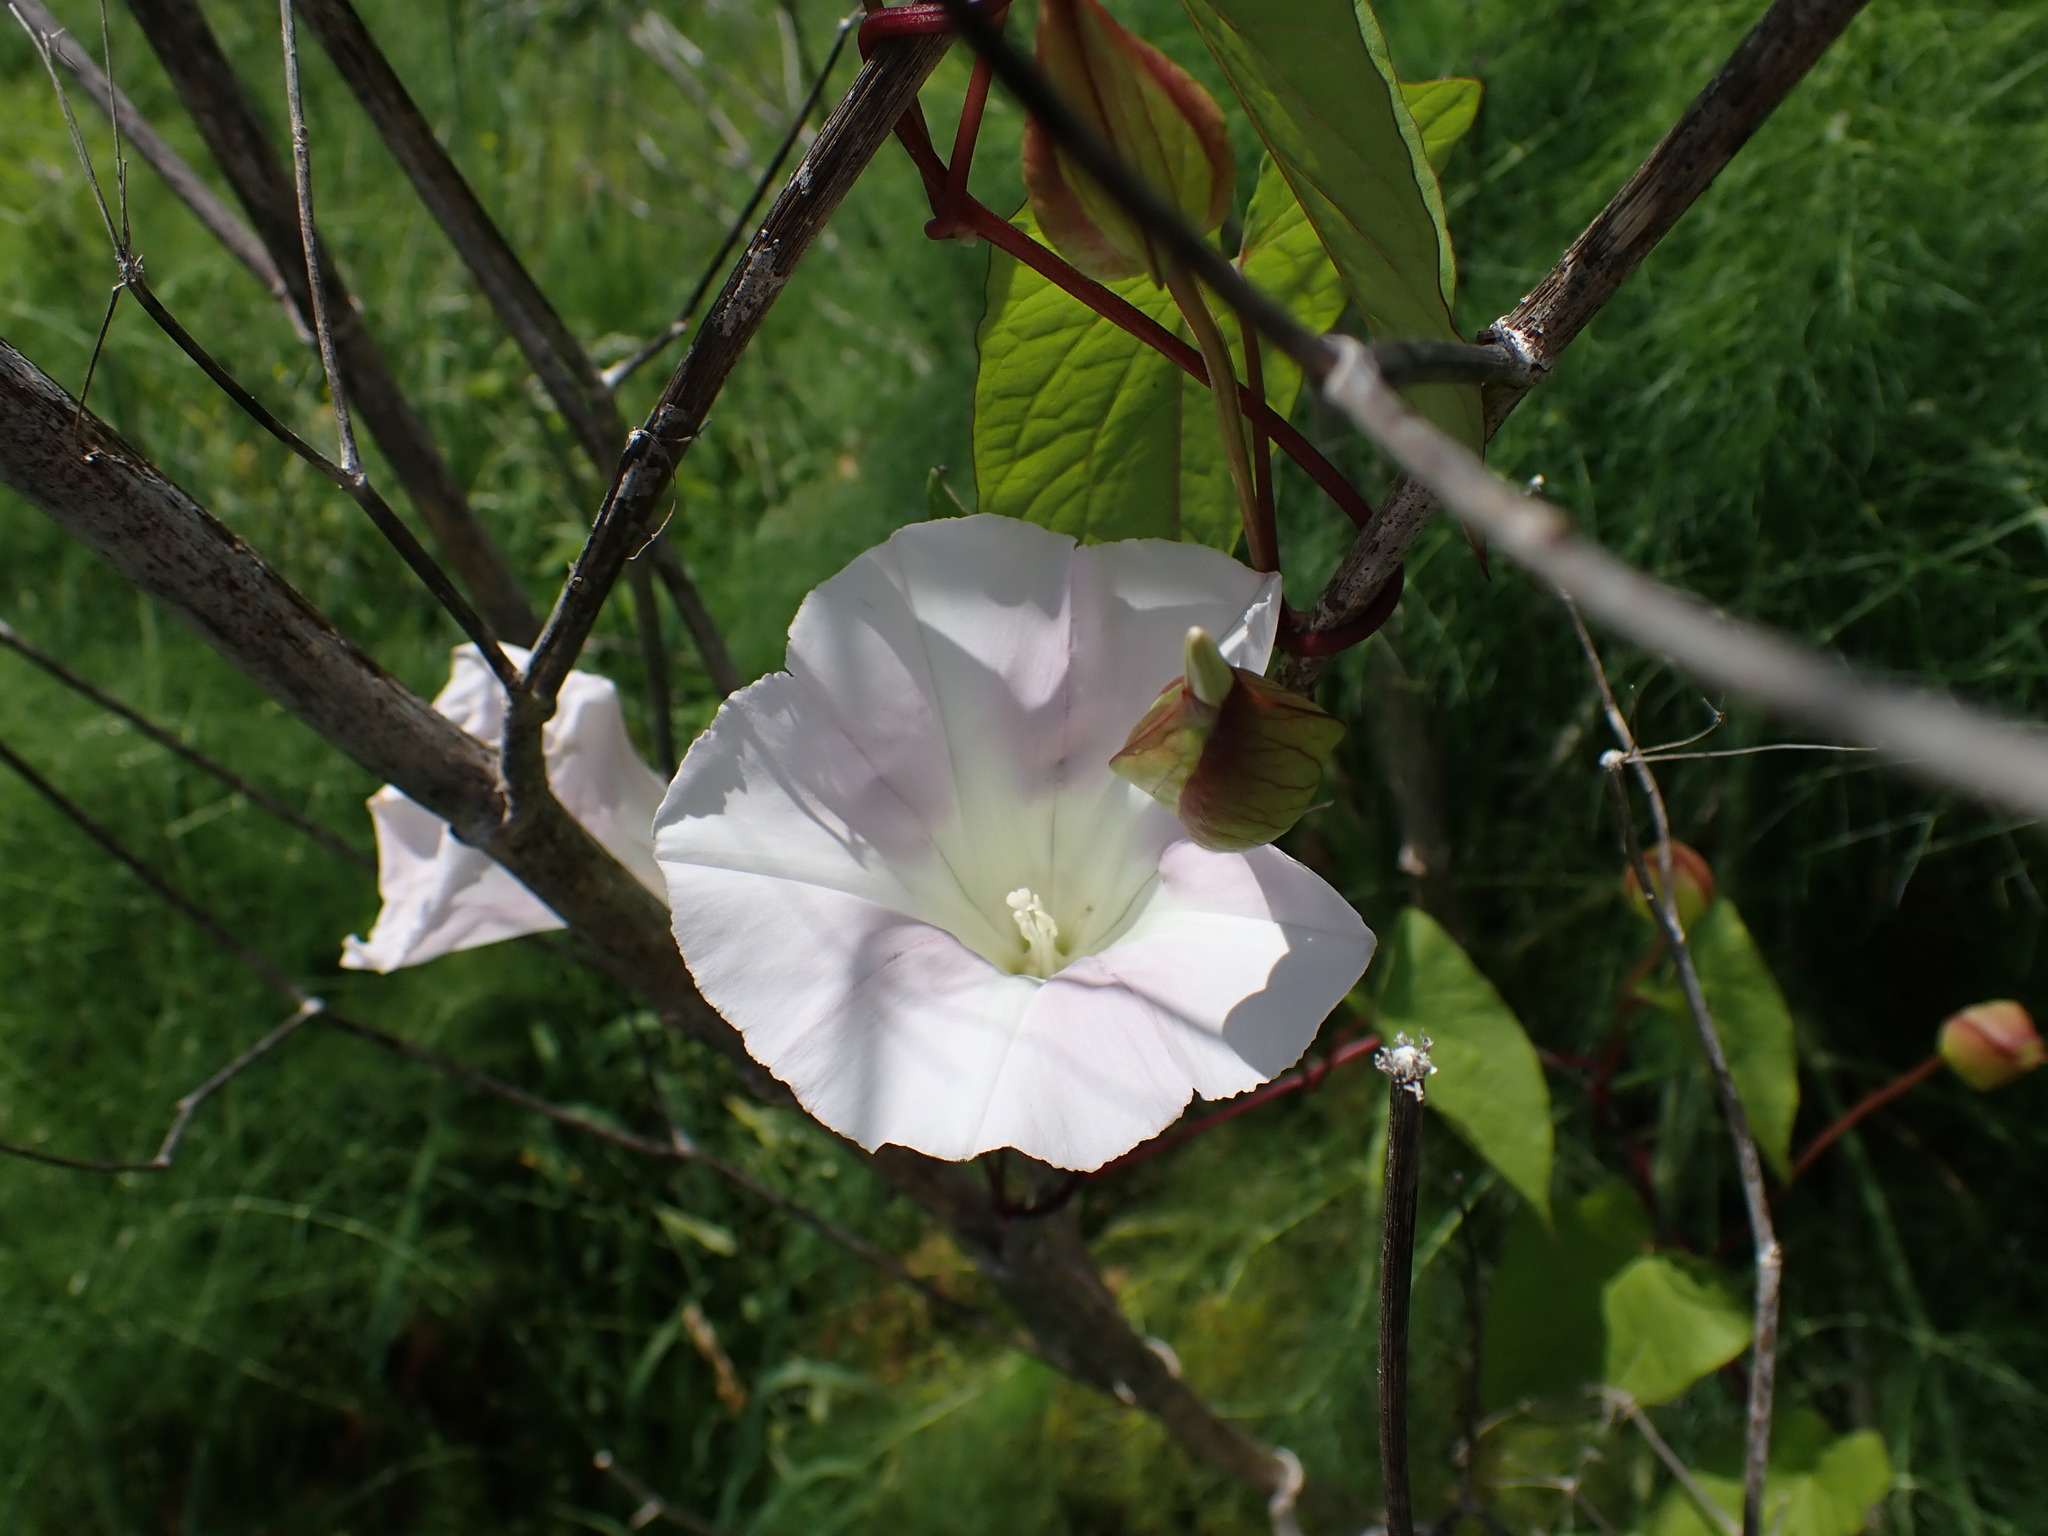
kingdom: Plantae
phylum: Tracheophyta
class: Magnoliopsida
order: Solanales
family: Convolvulaceae
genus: Calystegia
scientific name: Calystegia
